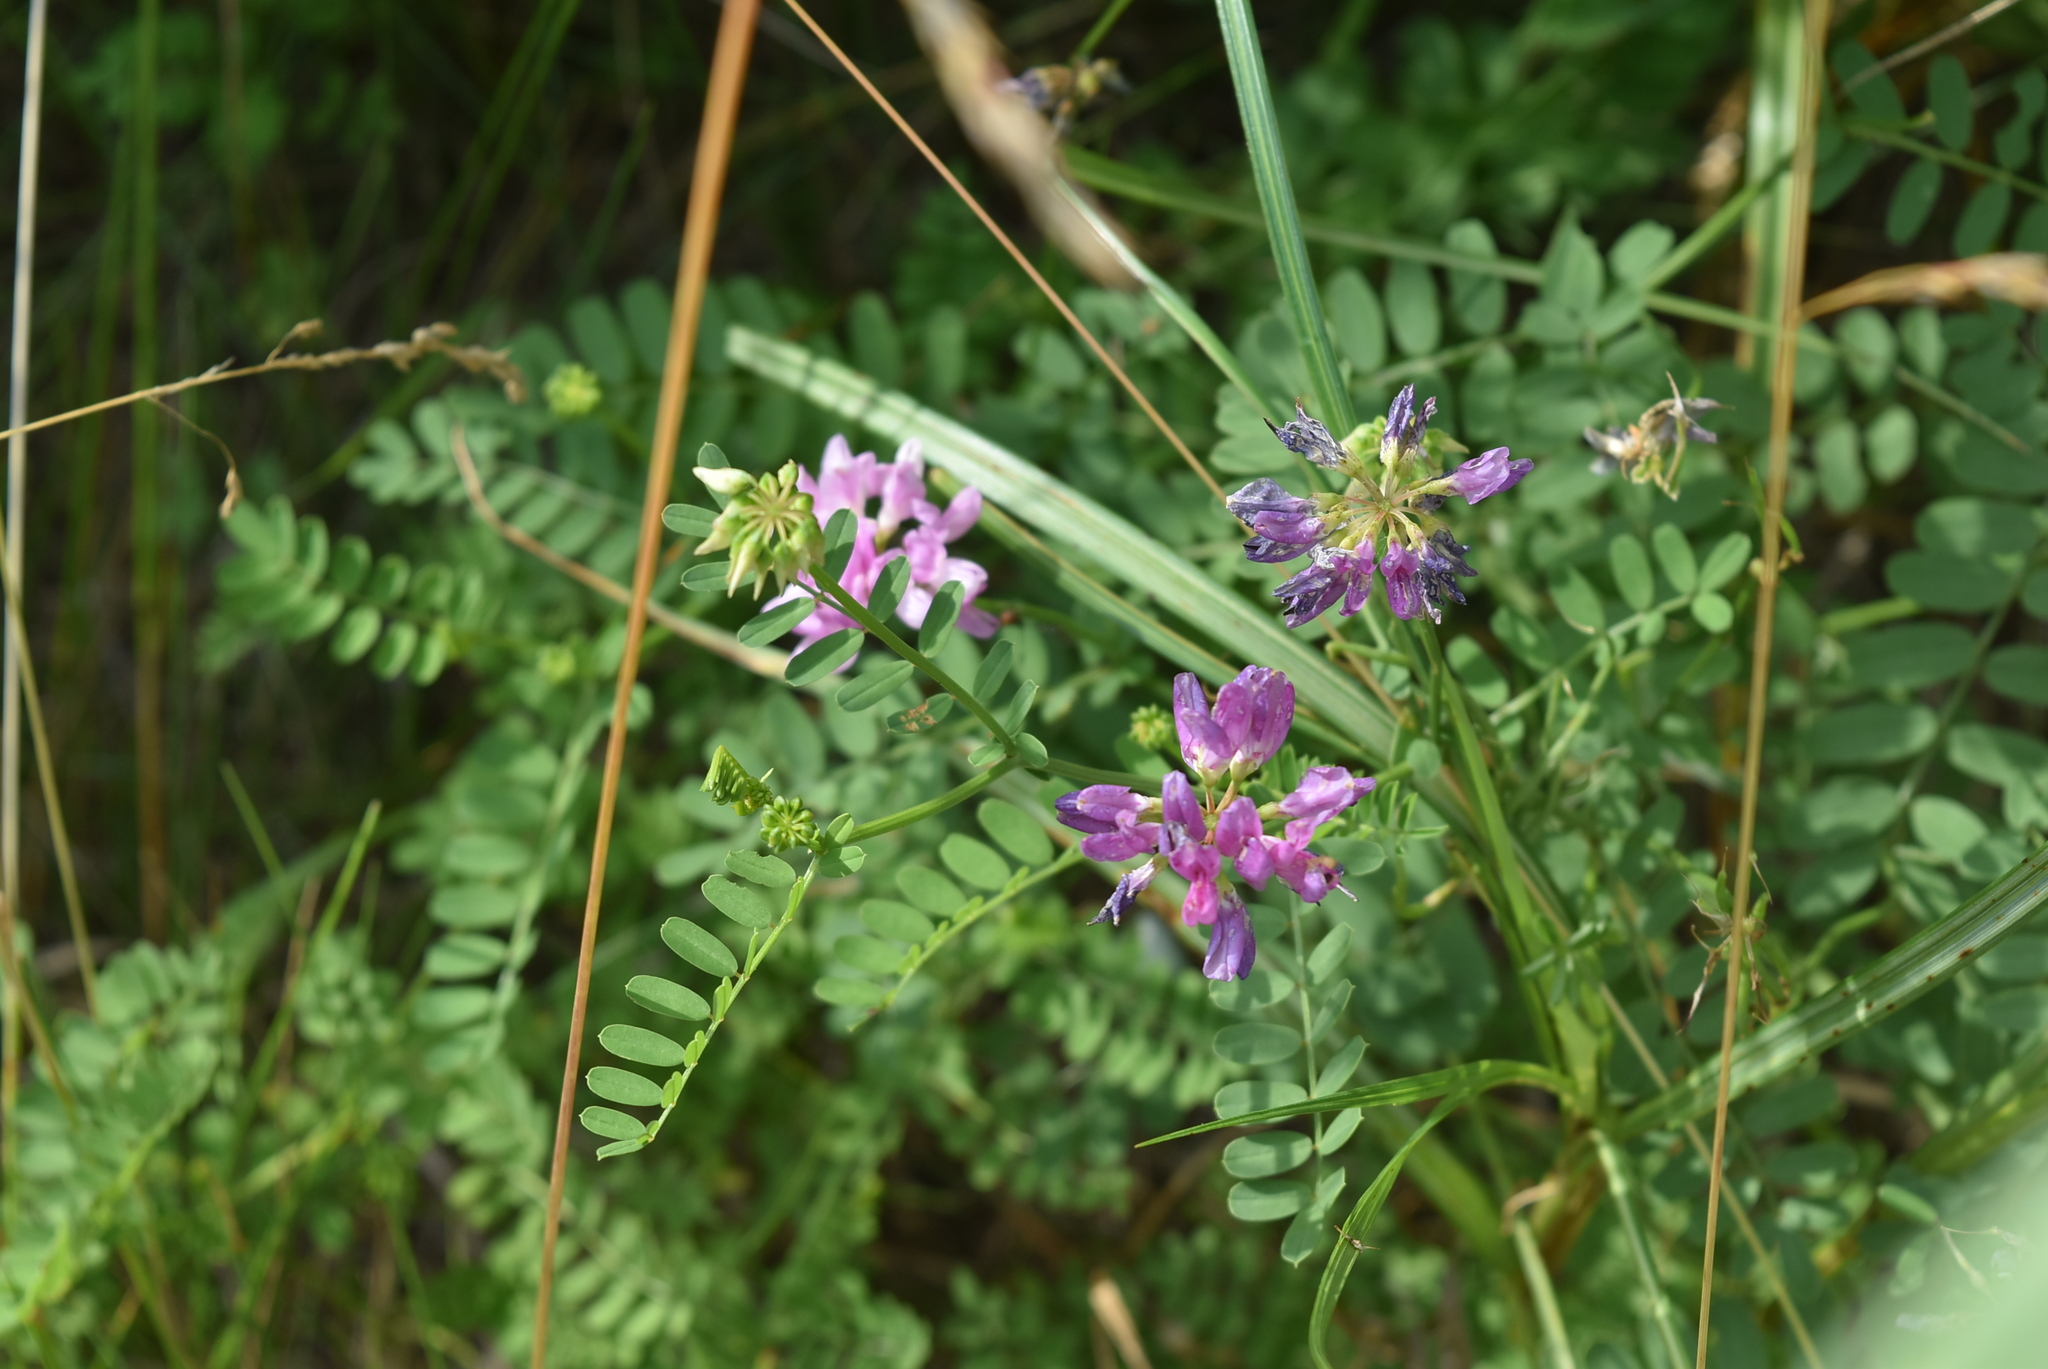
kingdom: Plantae
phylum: Tracheophyta
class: Magnoliopsida
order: Fabales
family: Fabaceae
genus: Coronilla
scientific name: Coronilla varia
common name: Crownvetch
